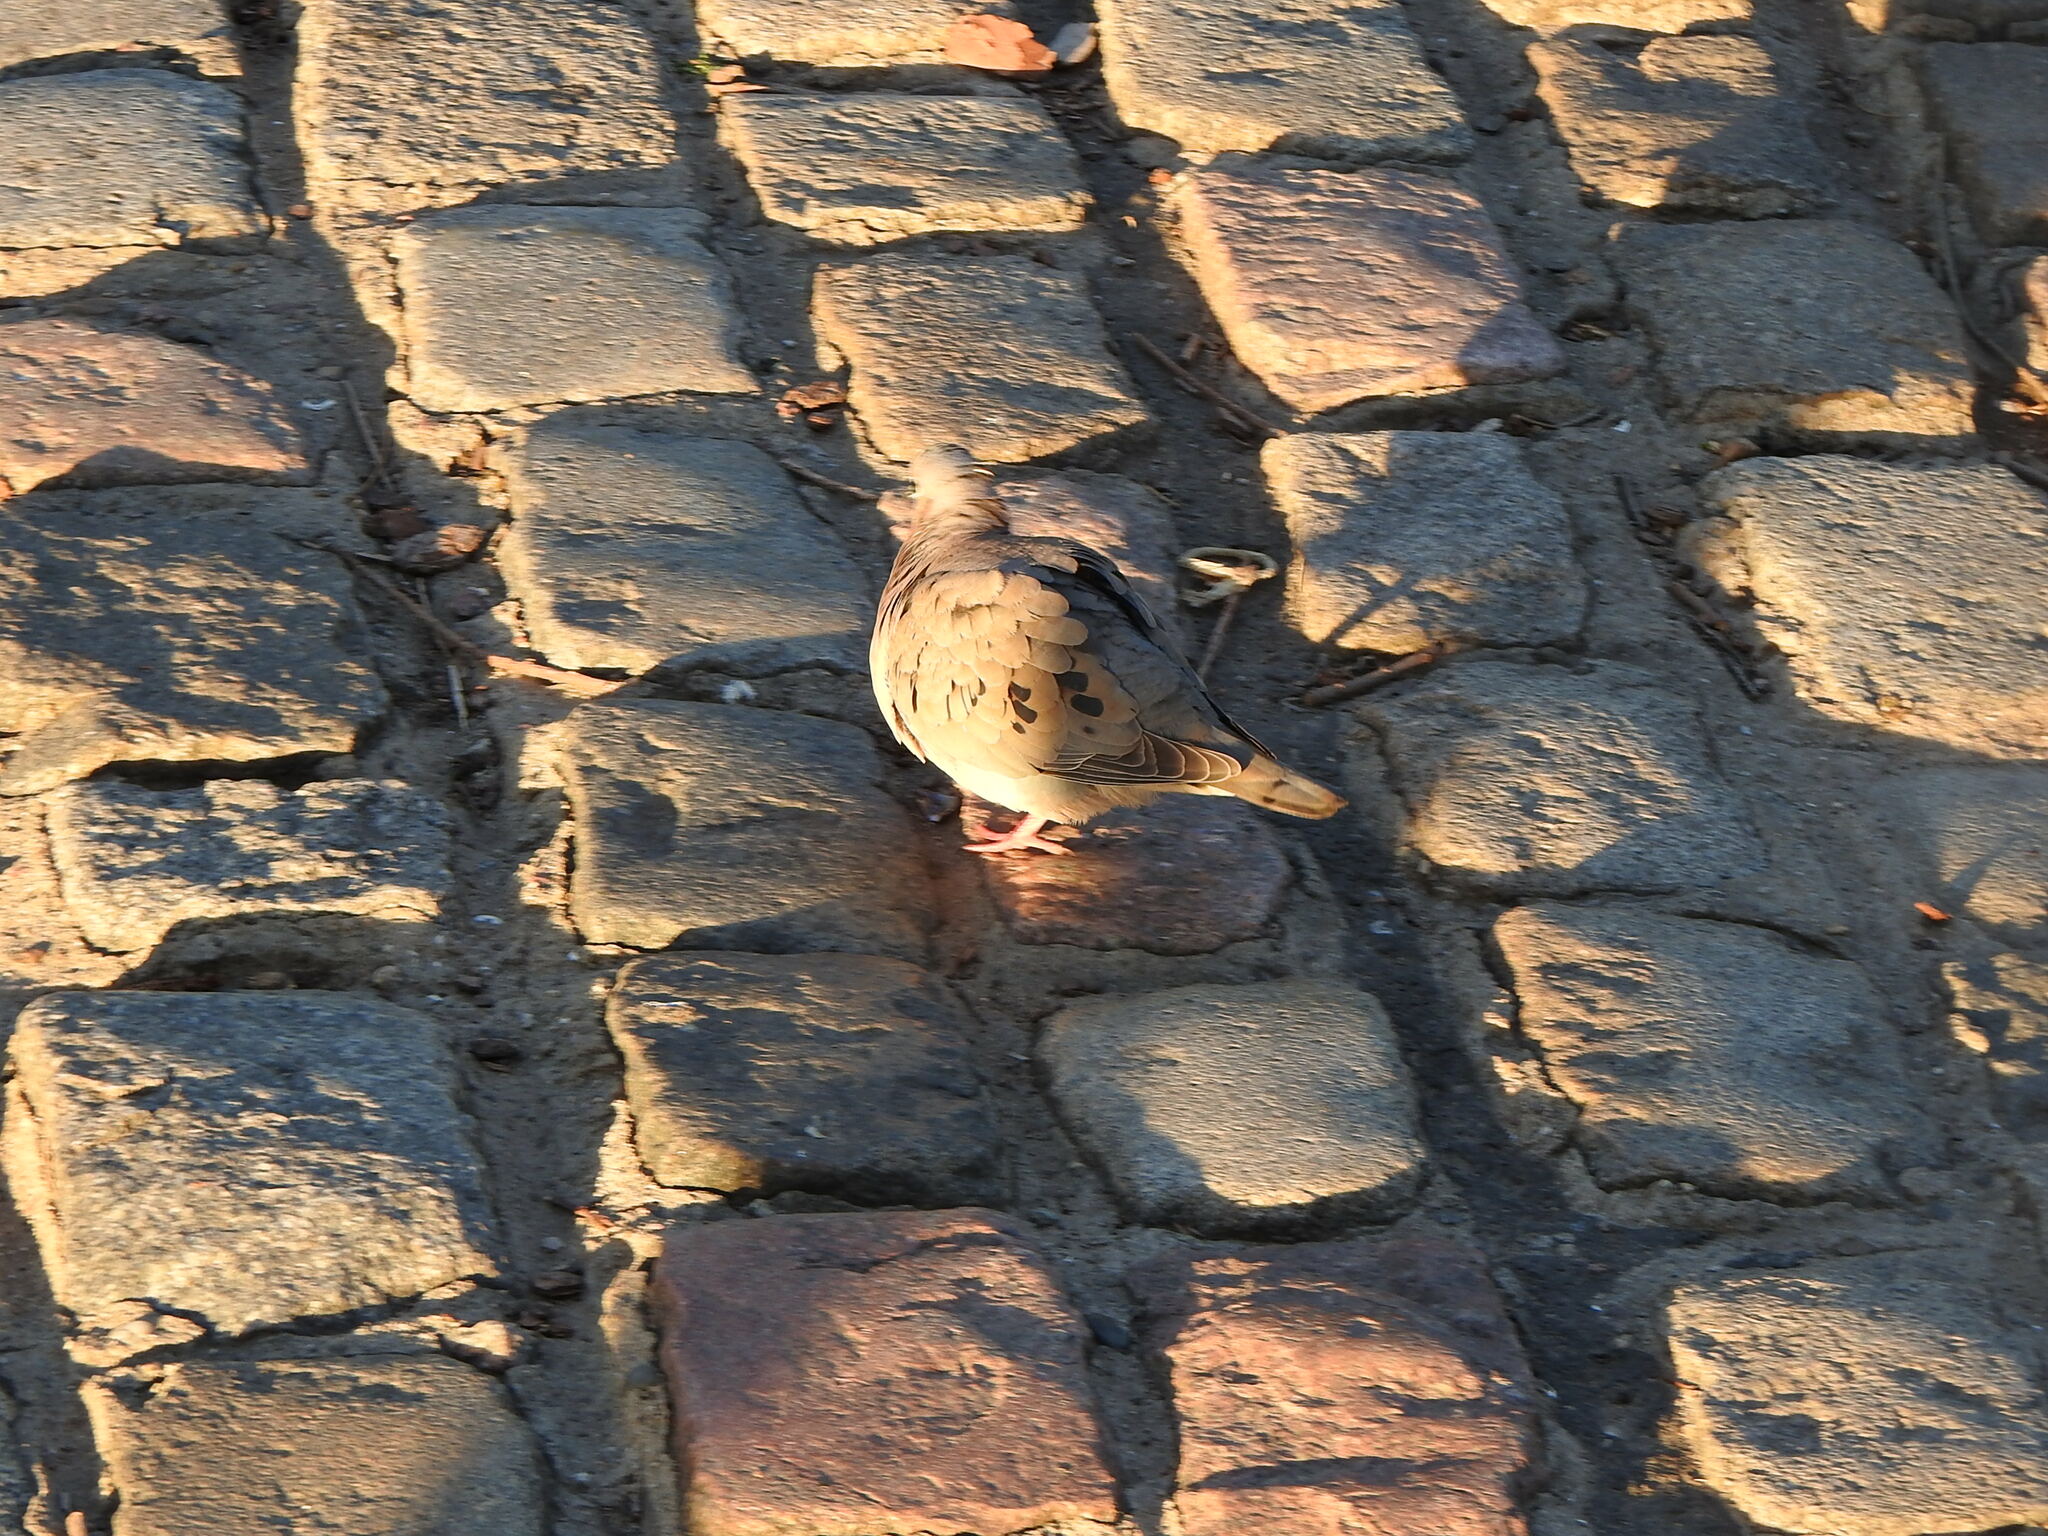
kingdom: Animalia
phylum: Chordata
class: Aves
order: Columbiformes
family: Columbidae
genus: Zenaida
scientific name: Zenaida auriculata
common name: Eared dove
